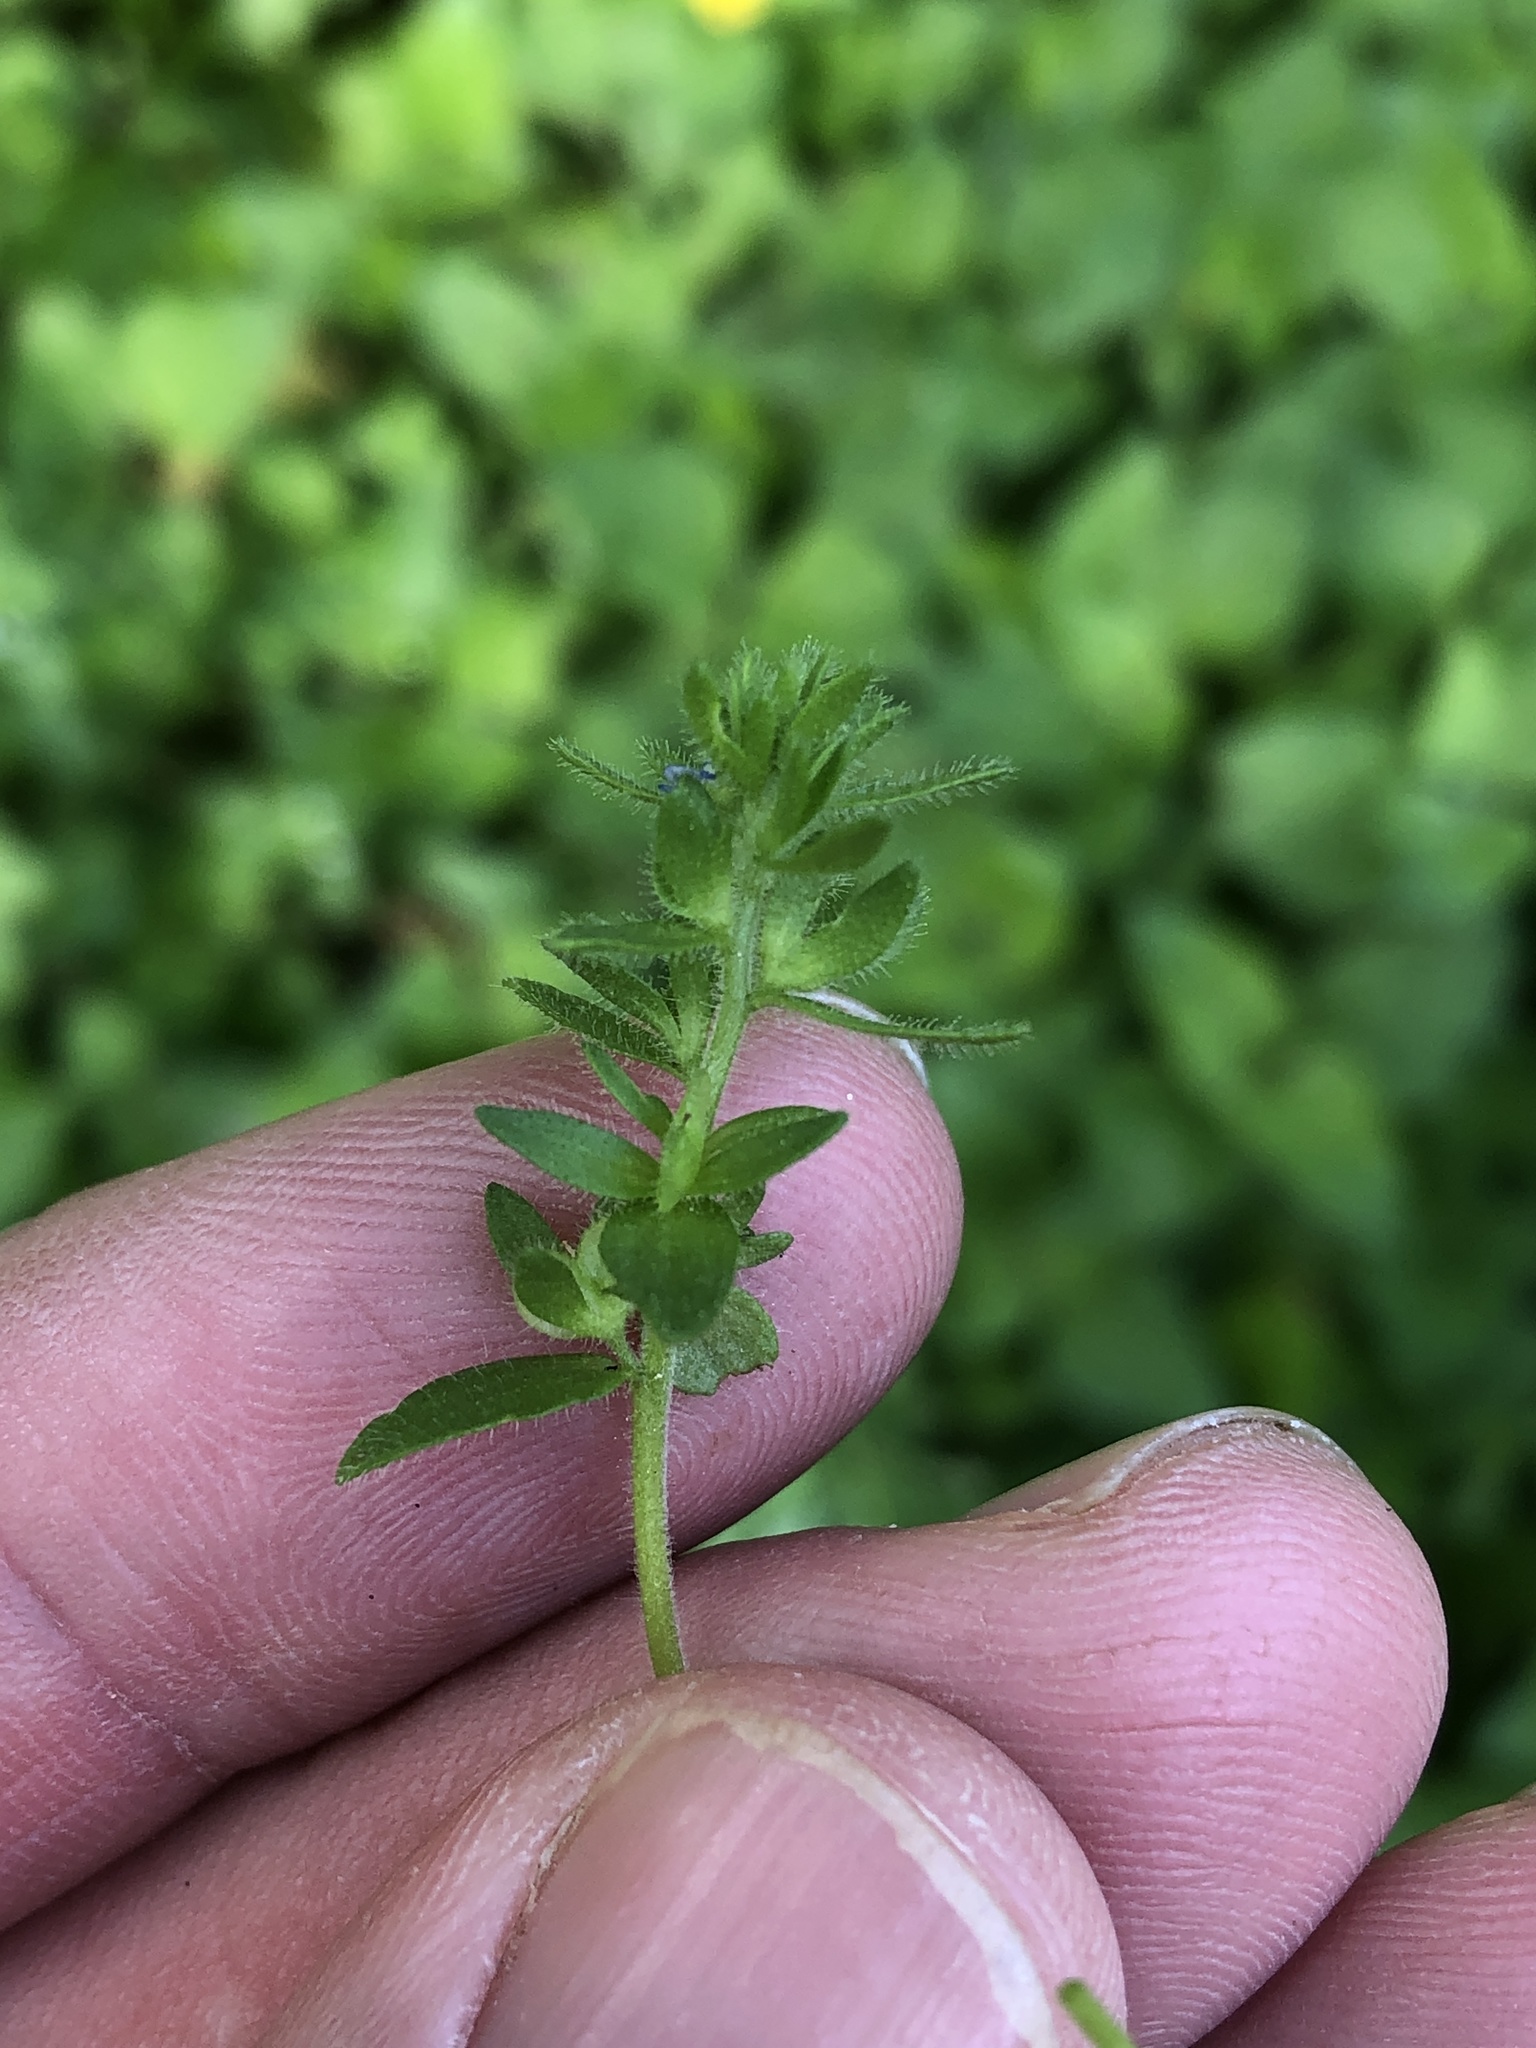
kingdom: Plantae
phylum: Tracheophyta
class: Magnoliopsida
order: Lamiales
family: Plantaginaceae
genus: Veronica
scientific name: Veronica arvensis
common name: Corn speedwell
